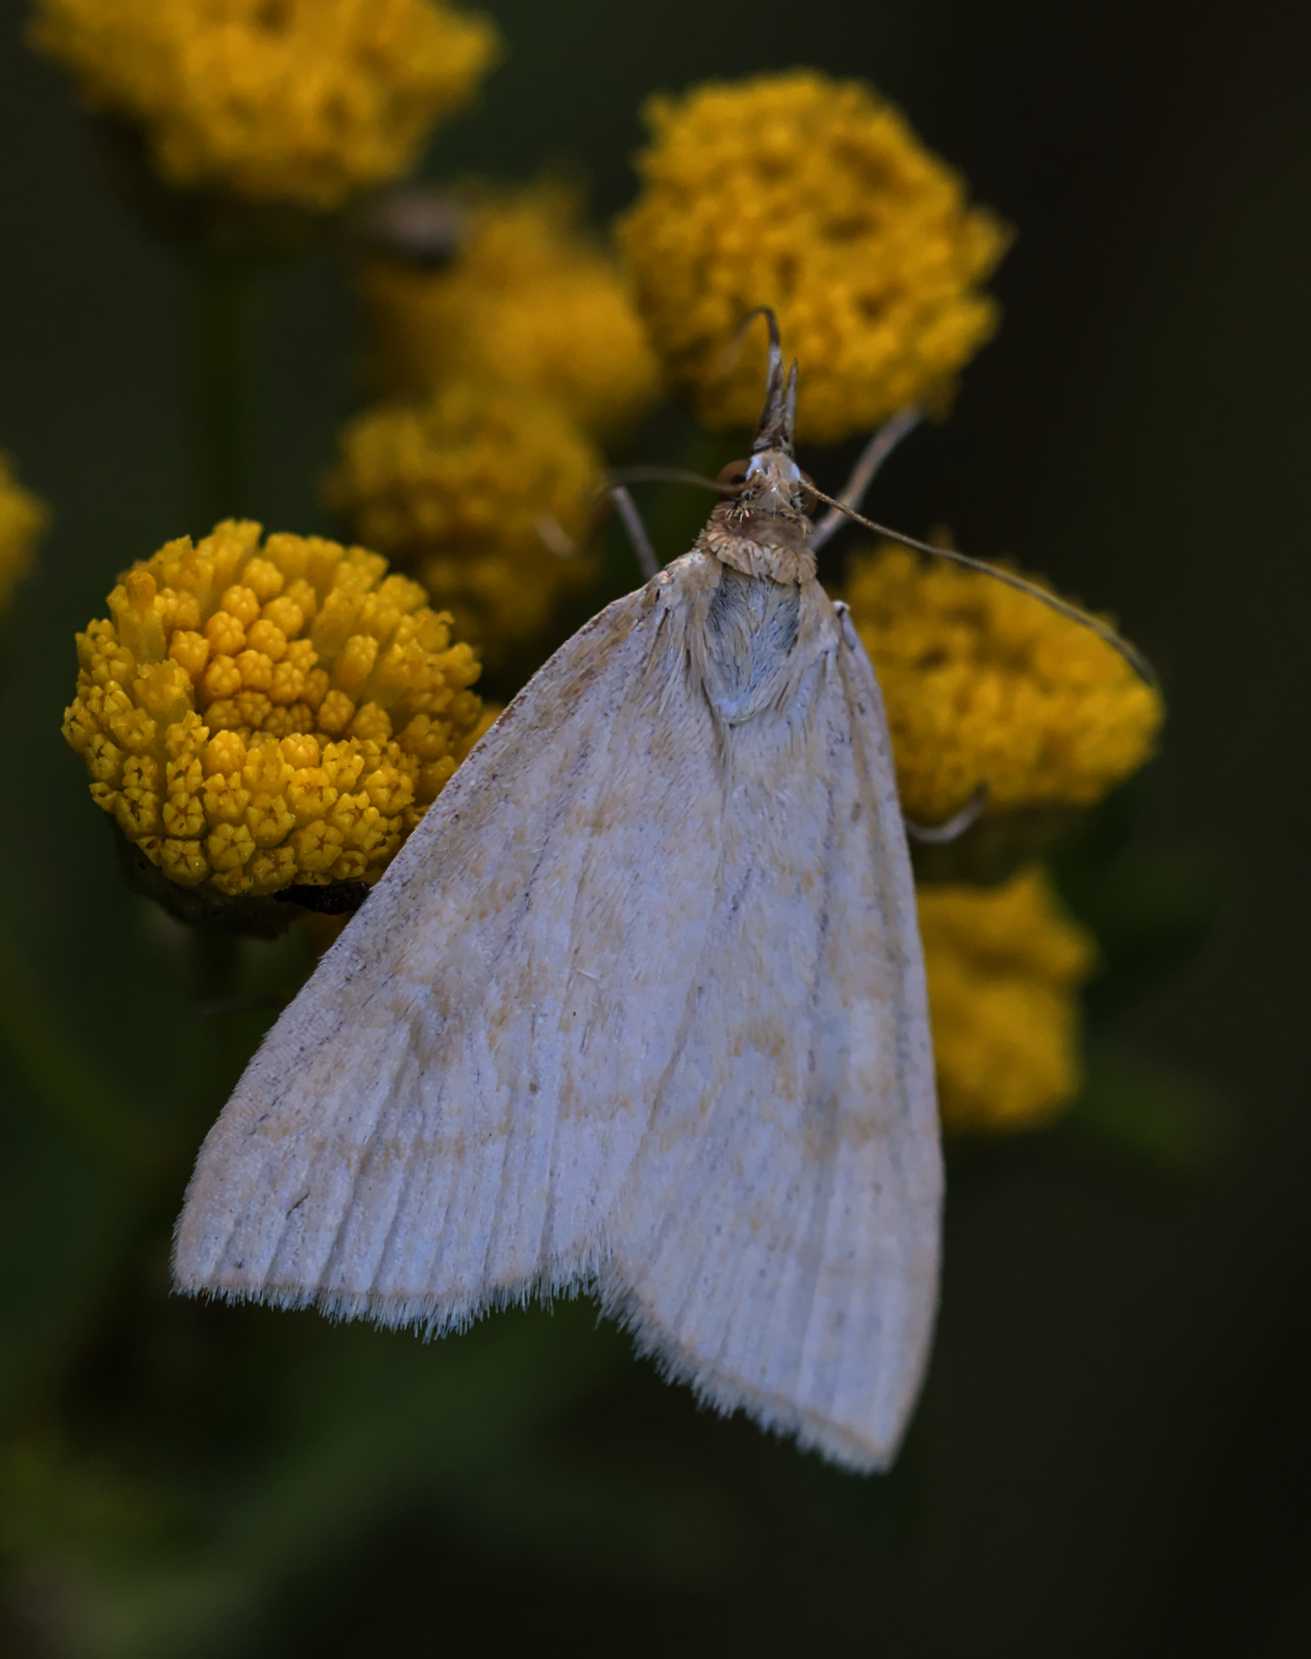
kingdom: Animalia
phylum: Arthropoda
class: Insecta
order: Lepidoptera
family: Crambidae
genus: Udea
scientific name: Udea lutealis
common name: Pale straw pearl
